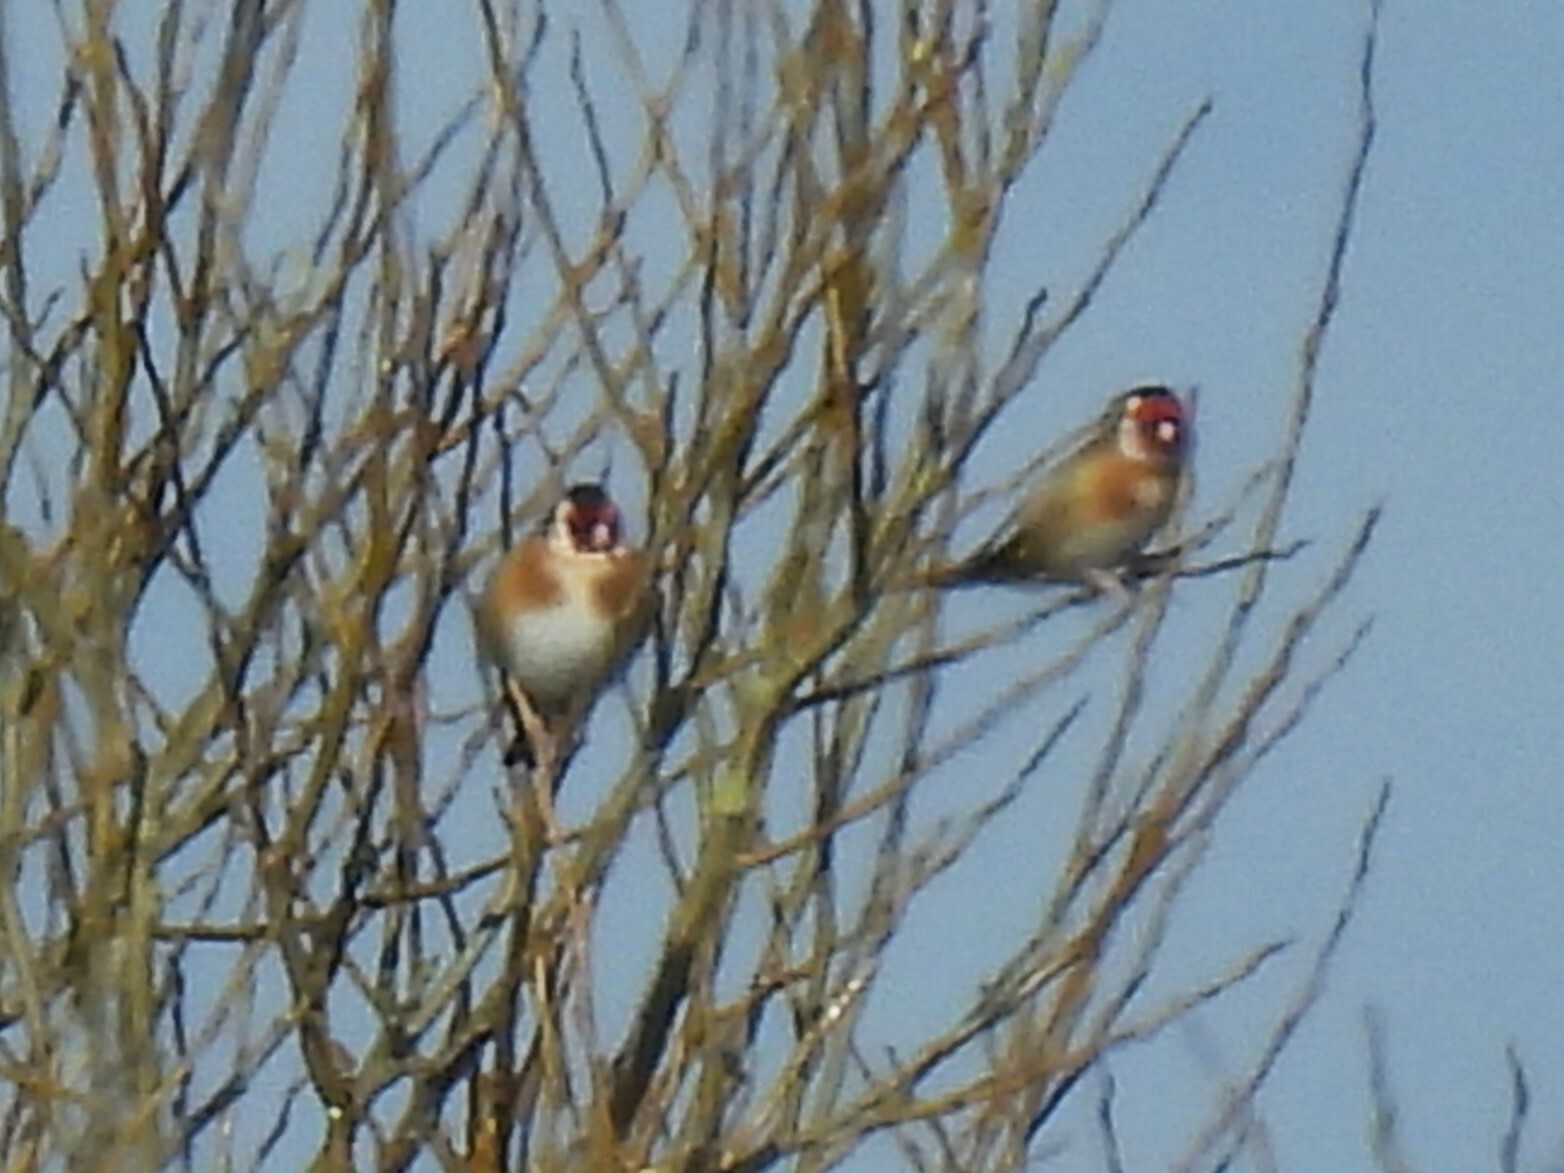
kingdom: Animalia
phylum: Chordata
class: Aves
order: Passeriformes
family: Fringillidae
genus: Carduelis
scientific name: Carduelis carduelis
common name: European goldfinch
